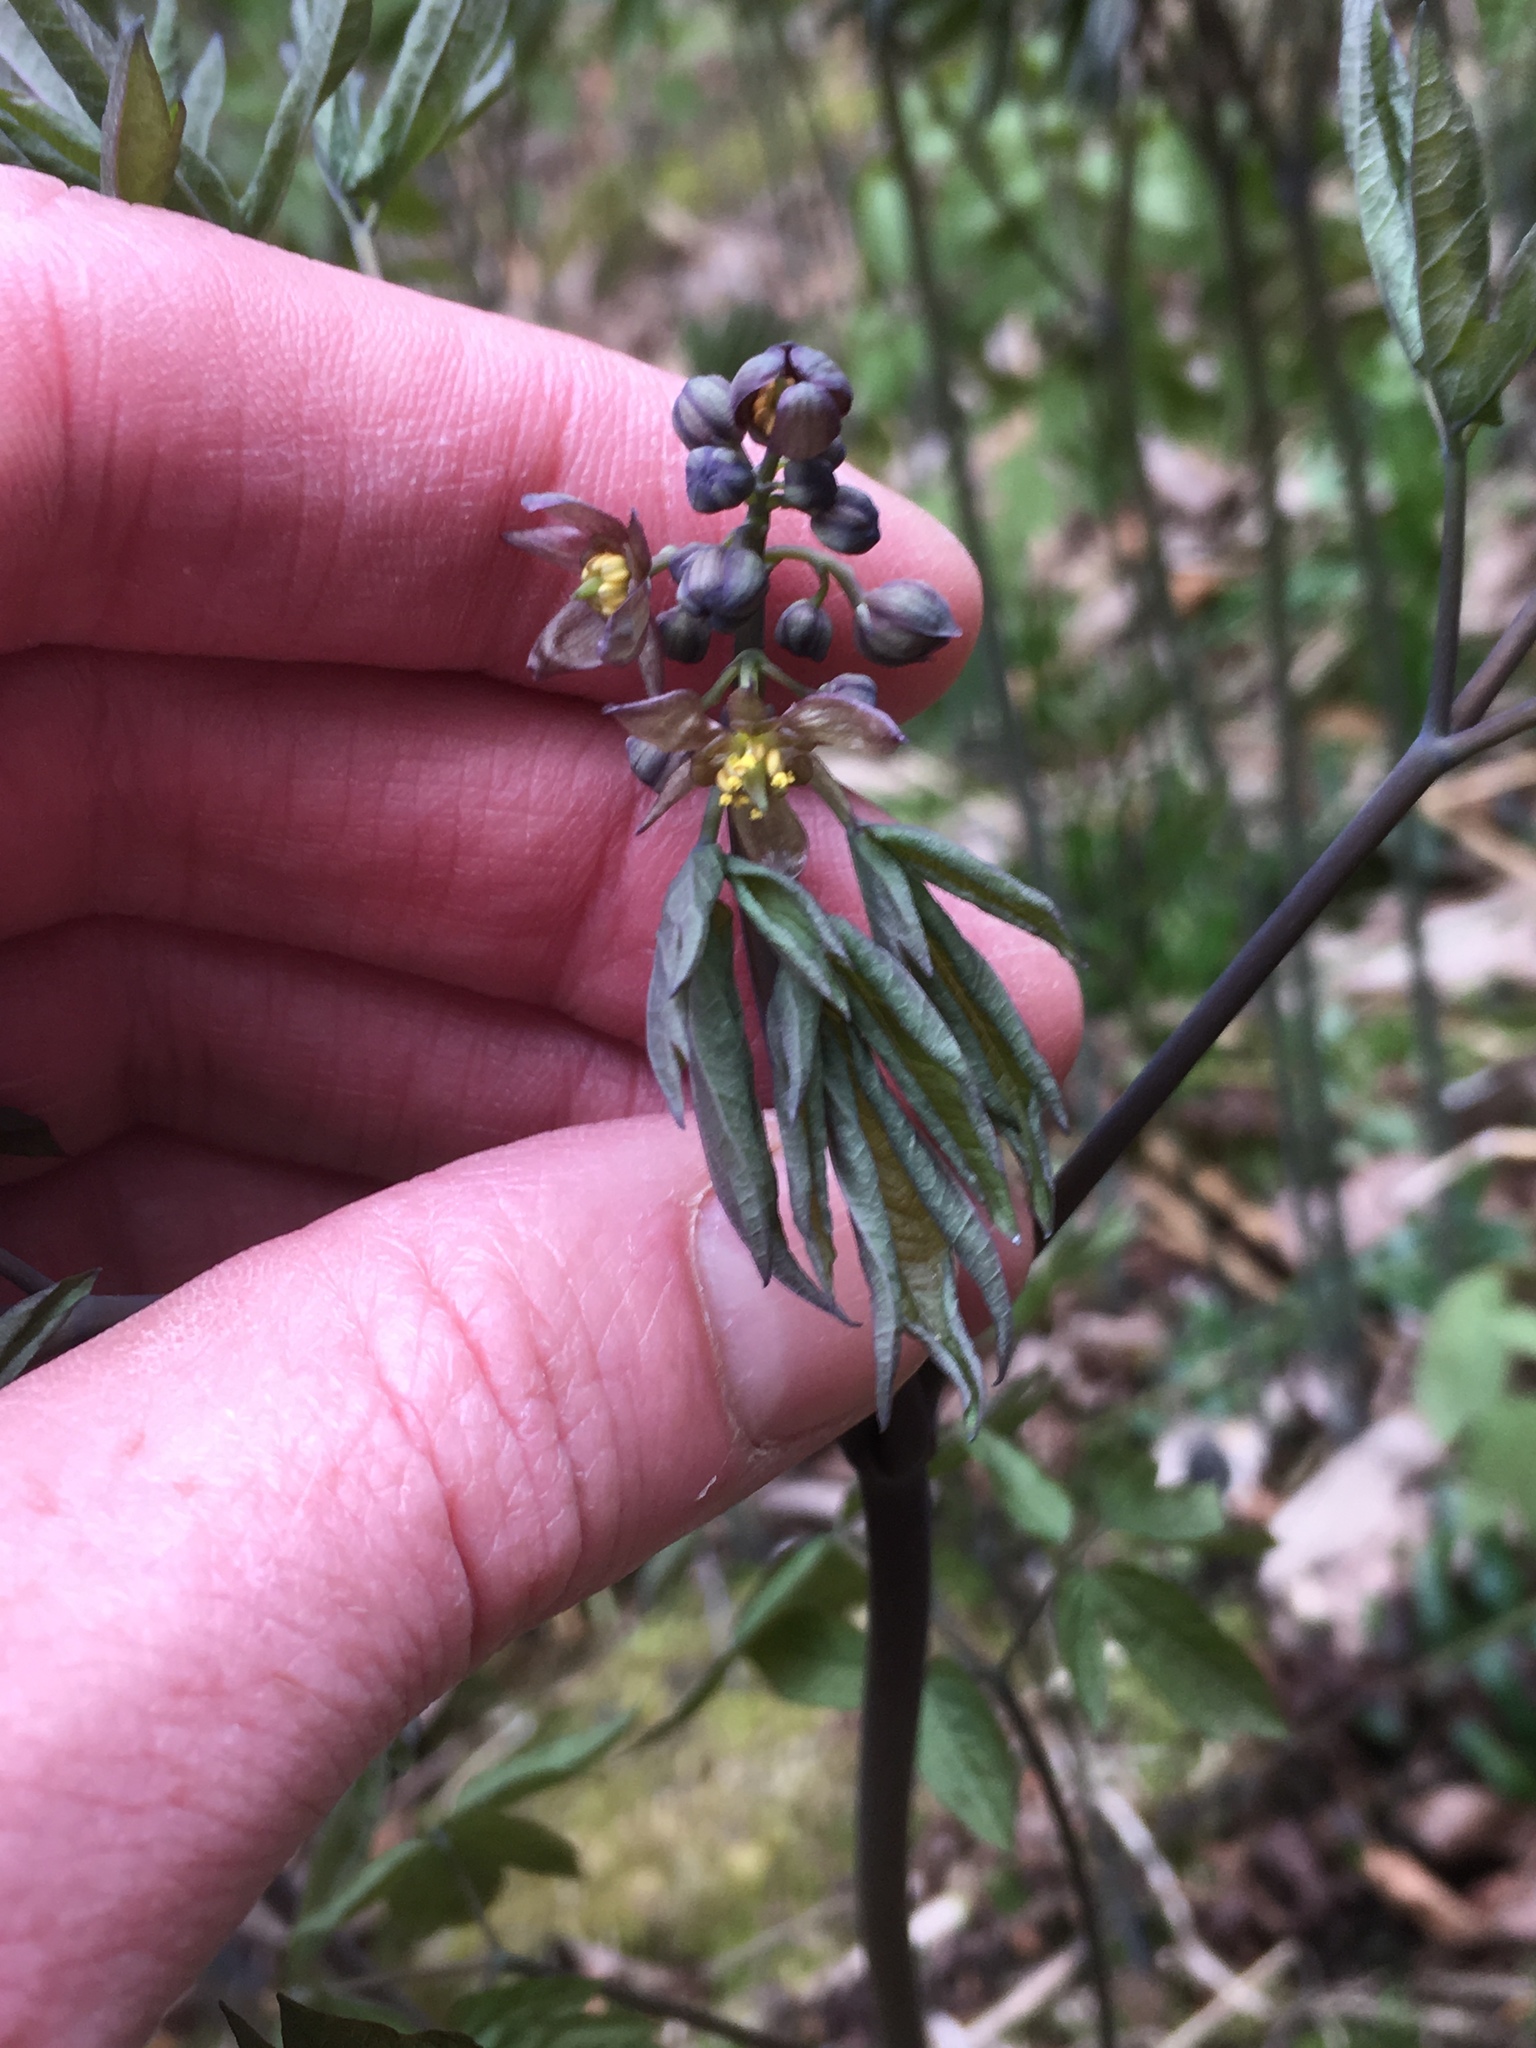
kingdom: Plantae
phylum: Tracheophyta
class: Magnoliopsida
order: Ranunculales
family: Berberidaceae
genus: Caulophyllum
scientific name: Caulophyllum giganteum
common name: Blue cohosh
